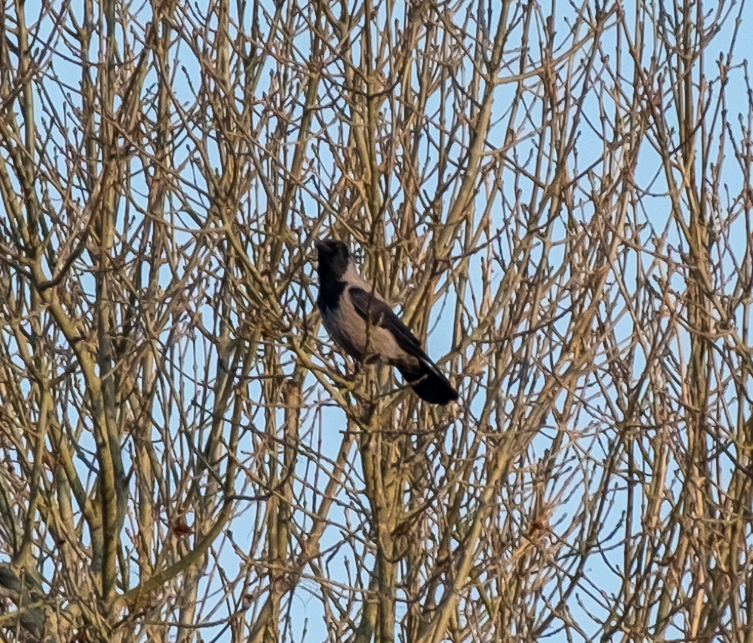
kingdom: Animalia
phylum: Chordata
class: Aves
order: Passeriformes
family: Corvidae
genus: Corvus
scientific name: Corvus cornix
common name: Hooded crow
